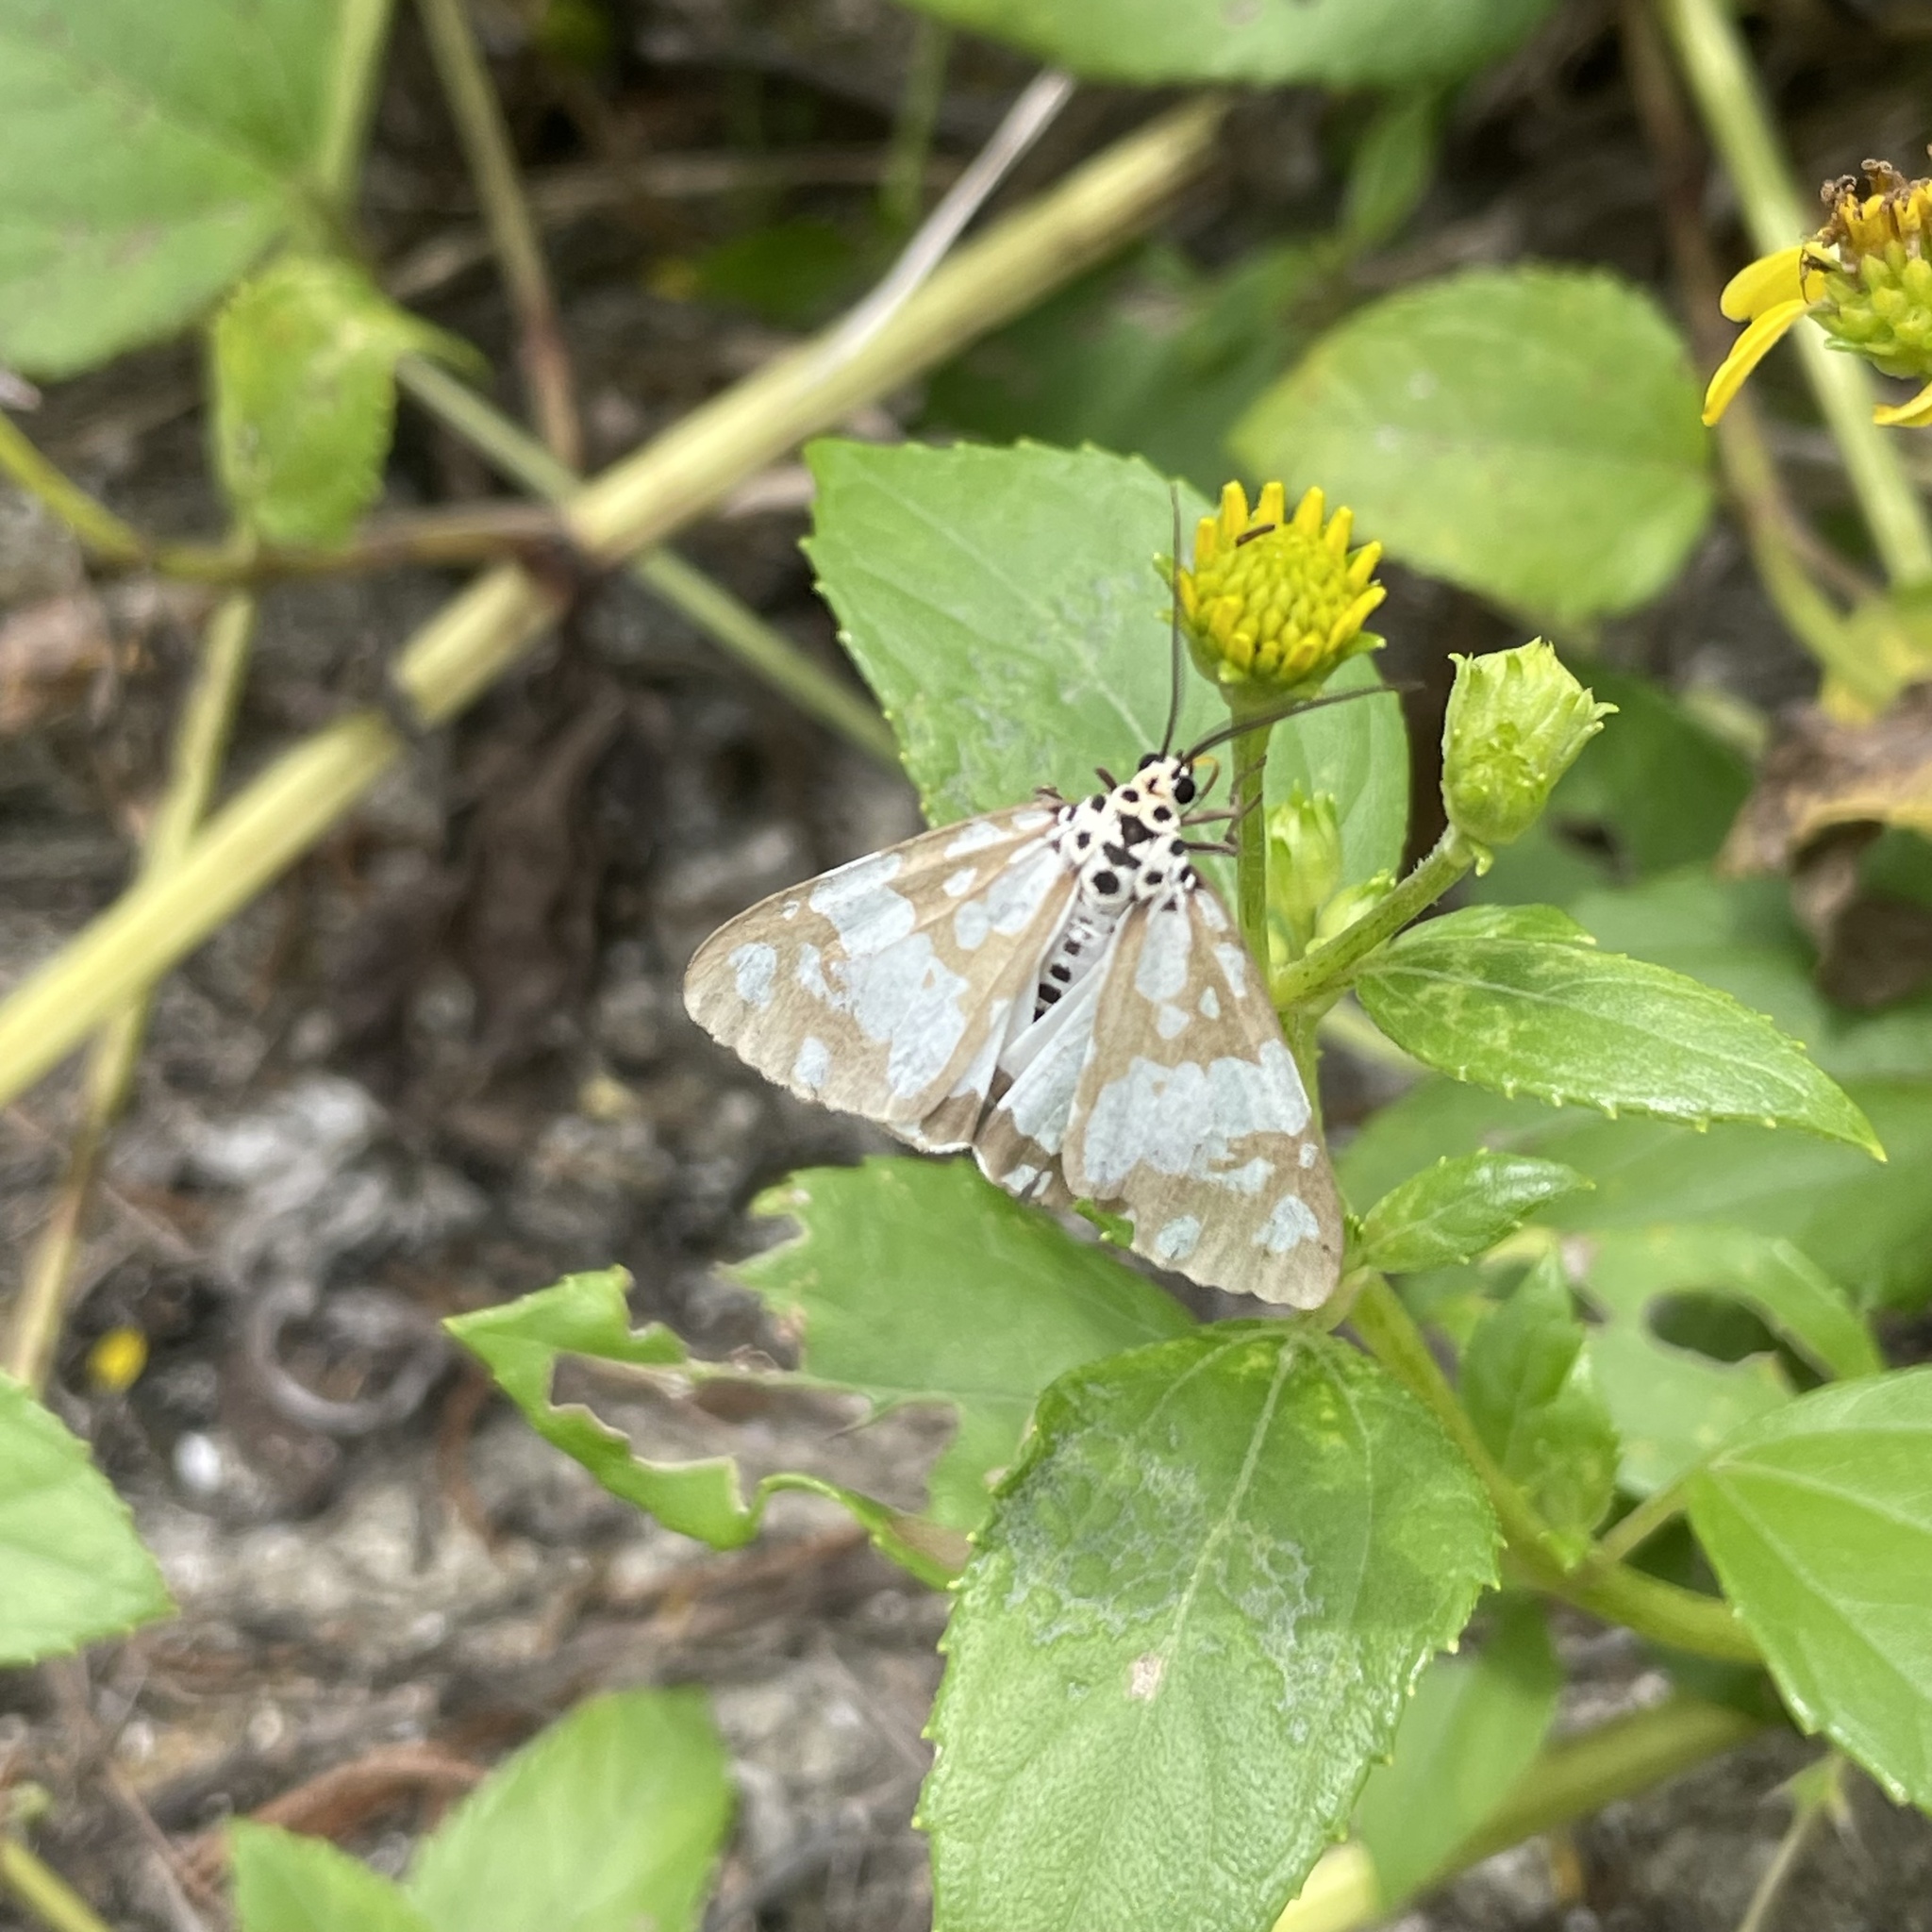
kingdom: Animalia
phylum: Arthropoda
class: Insecta
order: Lepidoptera
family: Erebidae
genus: Utetheisa
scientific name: Utetheisa inconstans
